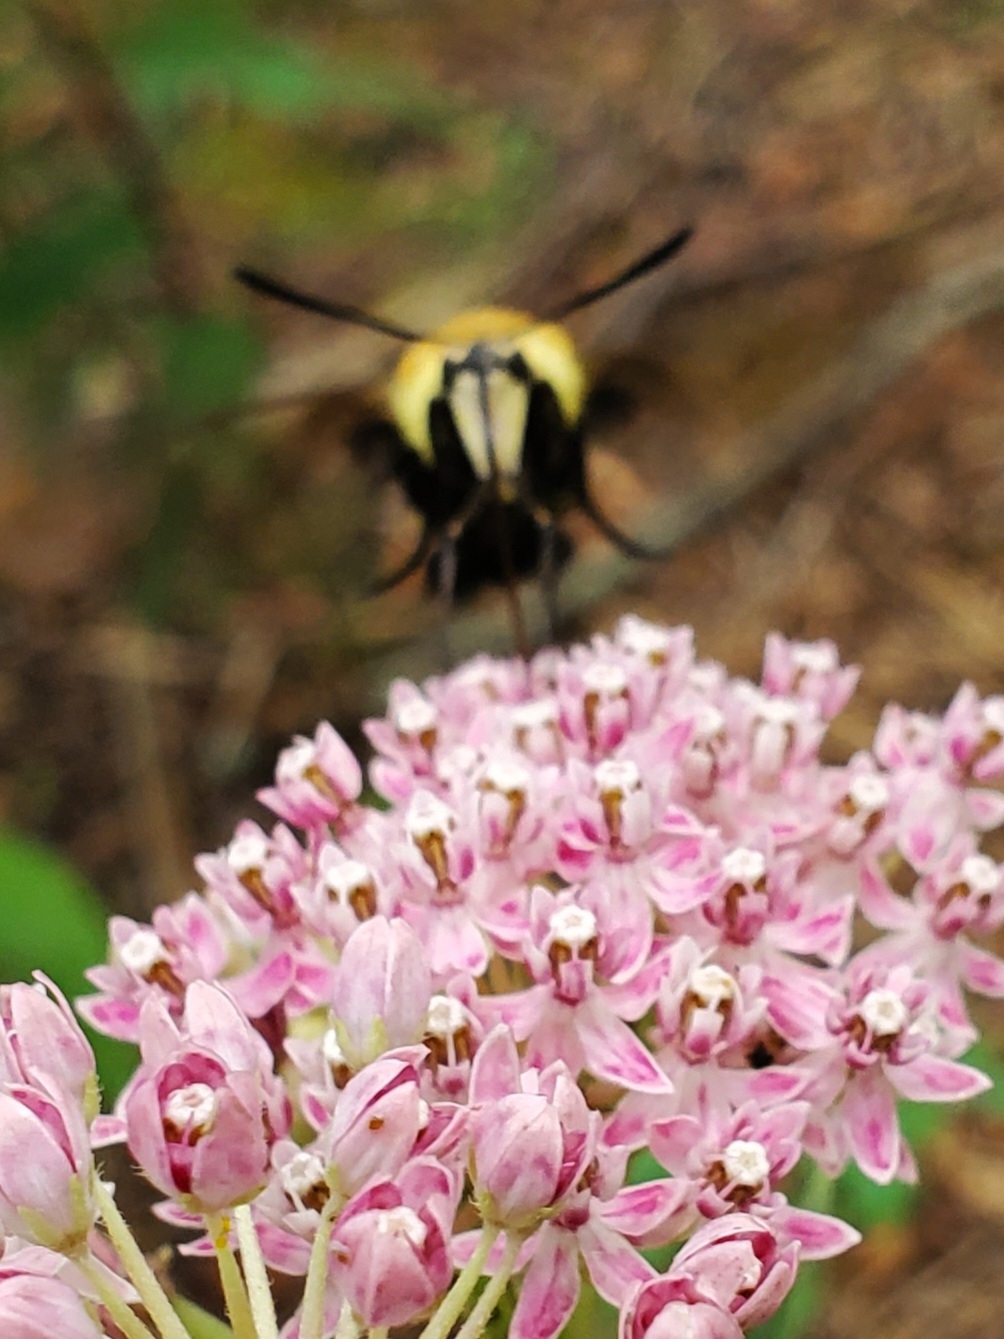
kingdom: Animalia
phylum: Arthropoda
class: Insecta
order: Lepidoptera
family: Sphingidae
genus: Hemaris
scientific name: Hemaris diffinis
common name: Bumblebee moth
